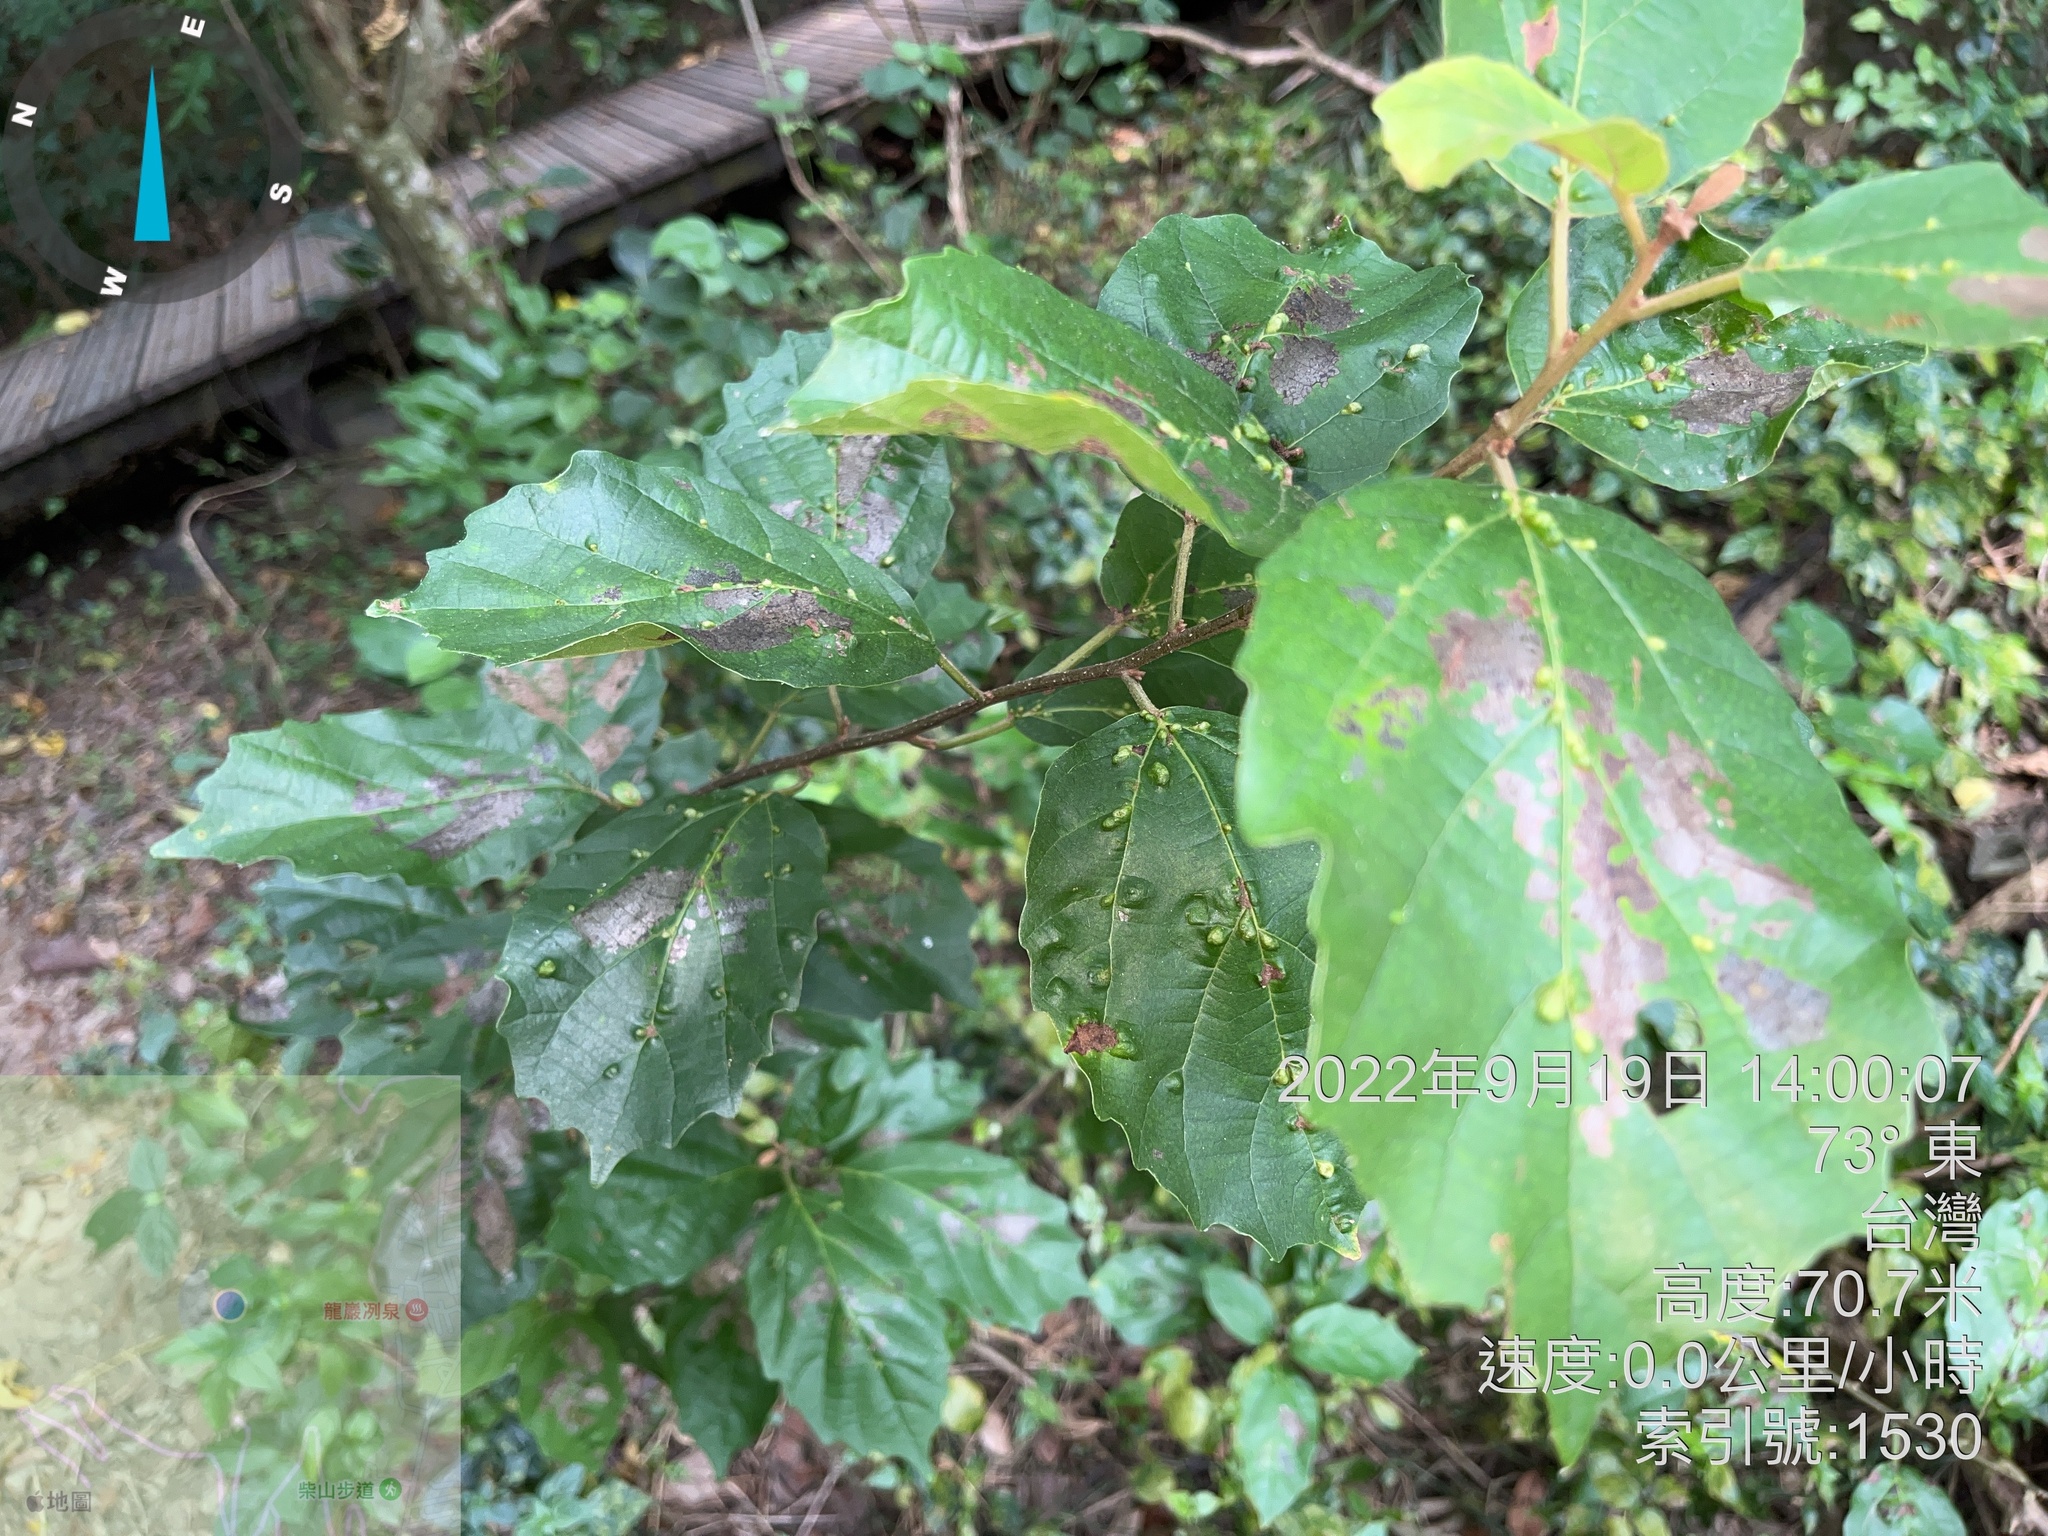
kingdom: Plantae
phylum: Tracheophyta
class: Magnoliopsida
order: Boraginales
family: Cordiaceae
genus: Cordia
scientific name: Cordia dichotoma
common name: Fragrant manjack
